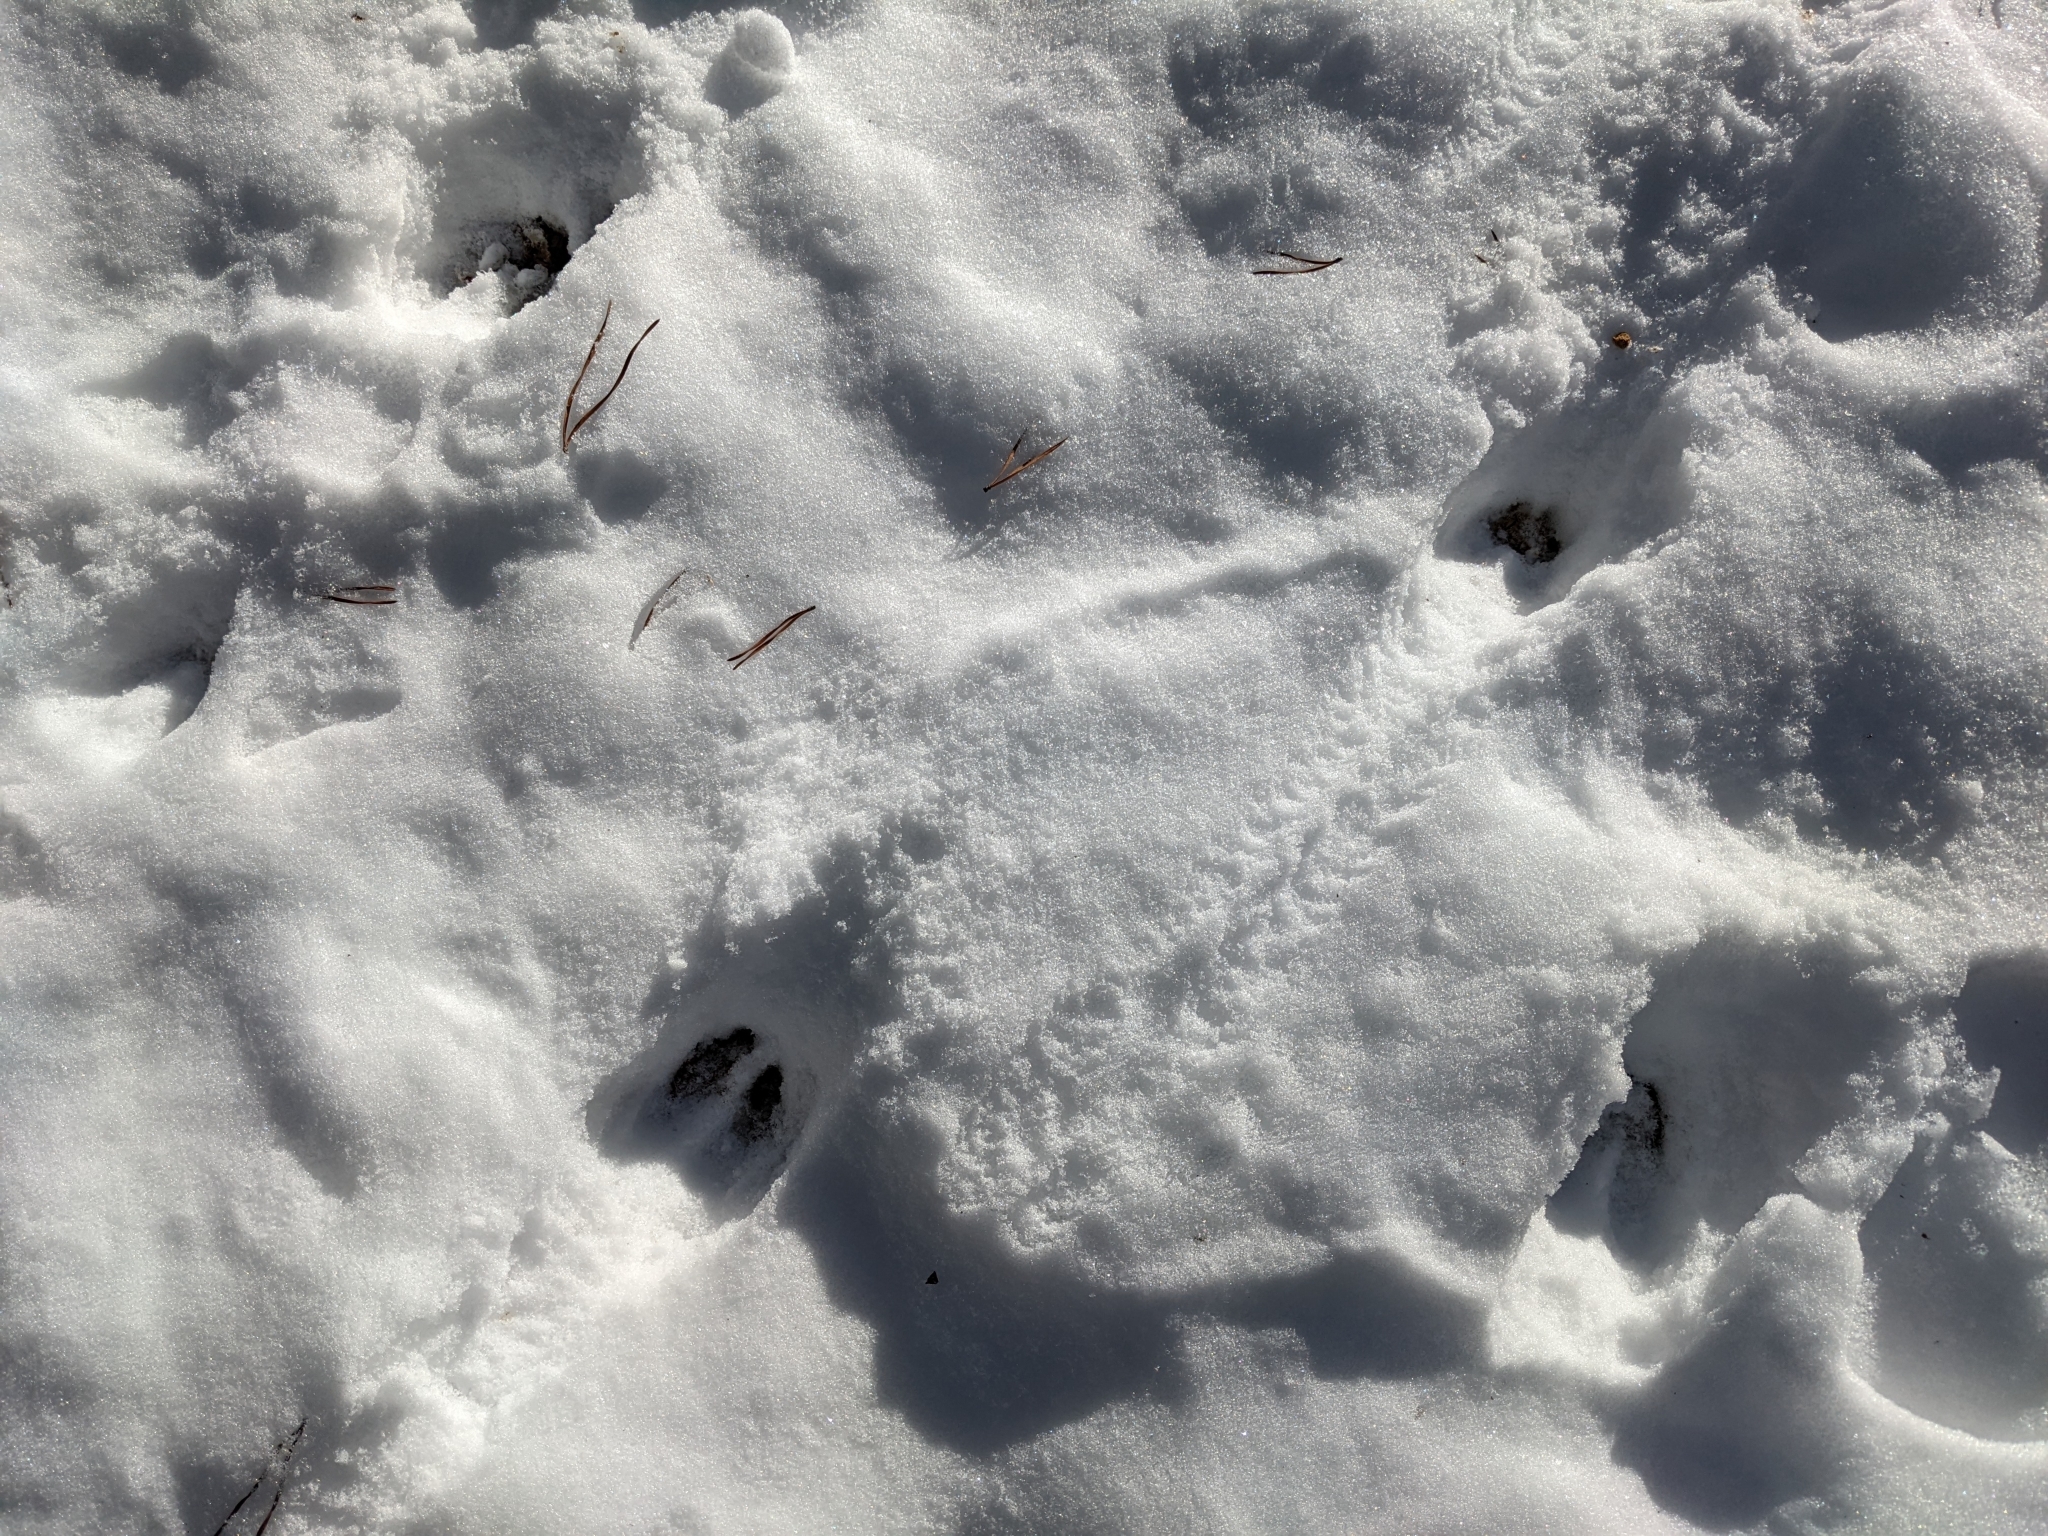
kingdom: Animalia
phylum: Chordata
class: Mammalia
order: Artiodactyla
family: Cervidae
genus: Odocoileus
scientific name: Odocoileus virginianus
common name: White-tailed deer
